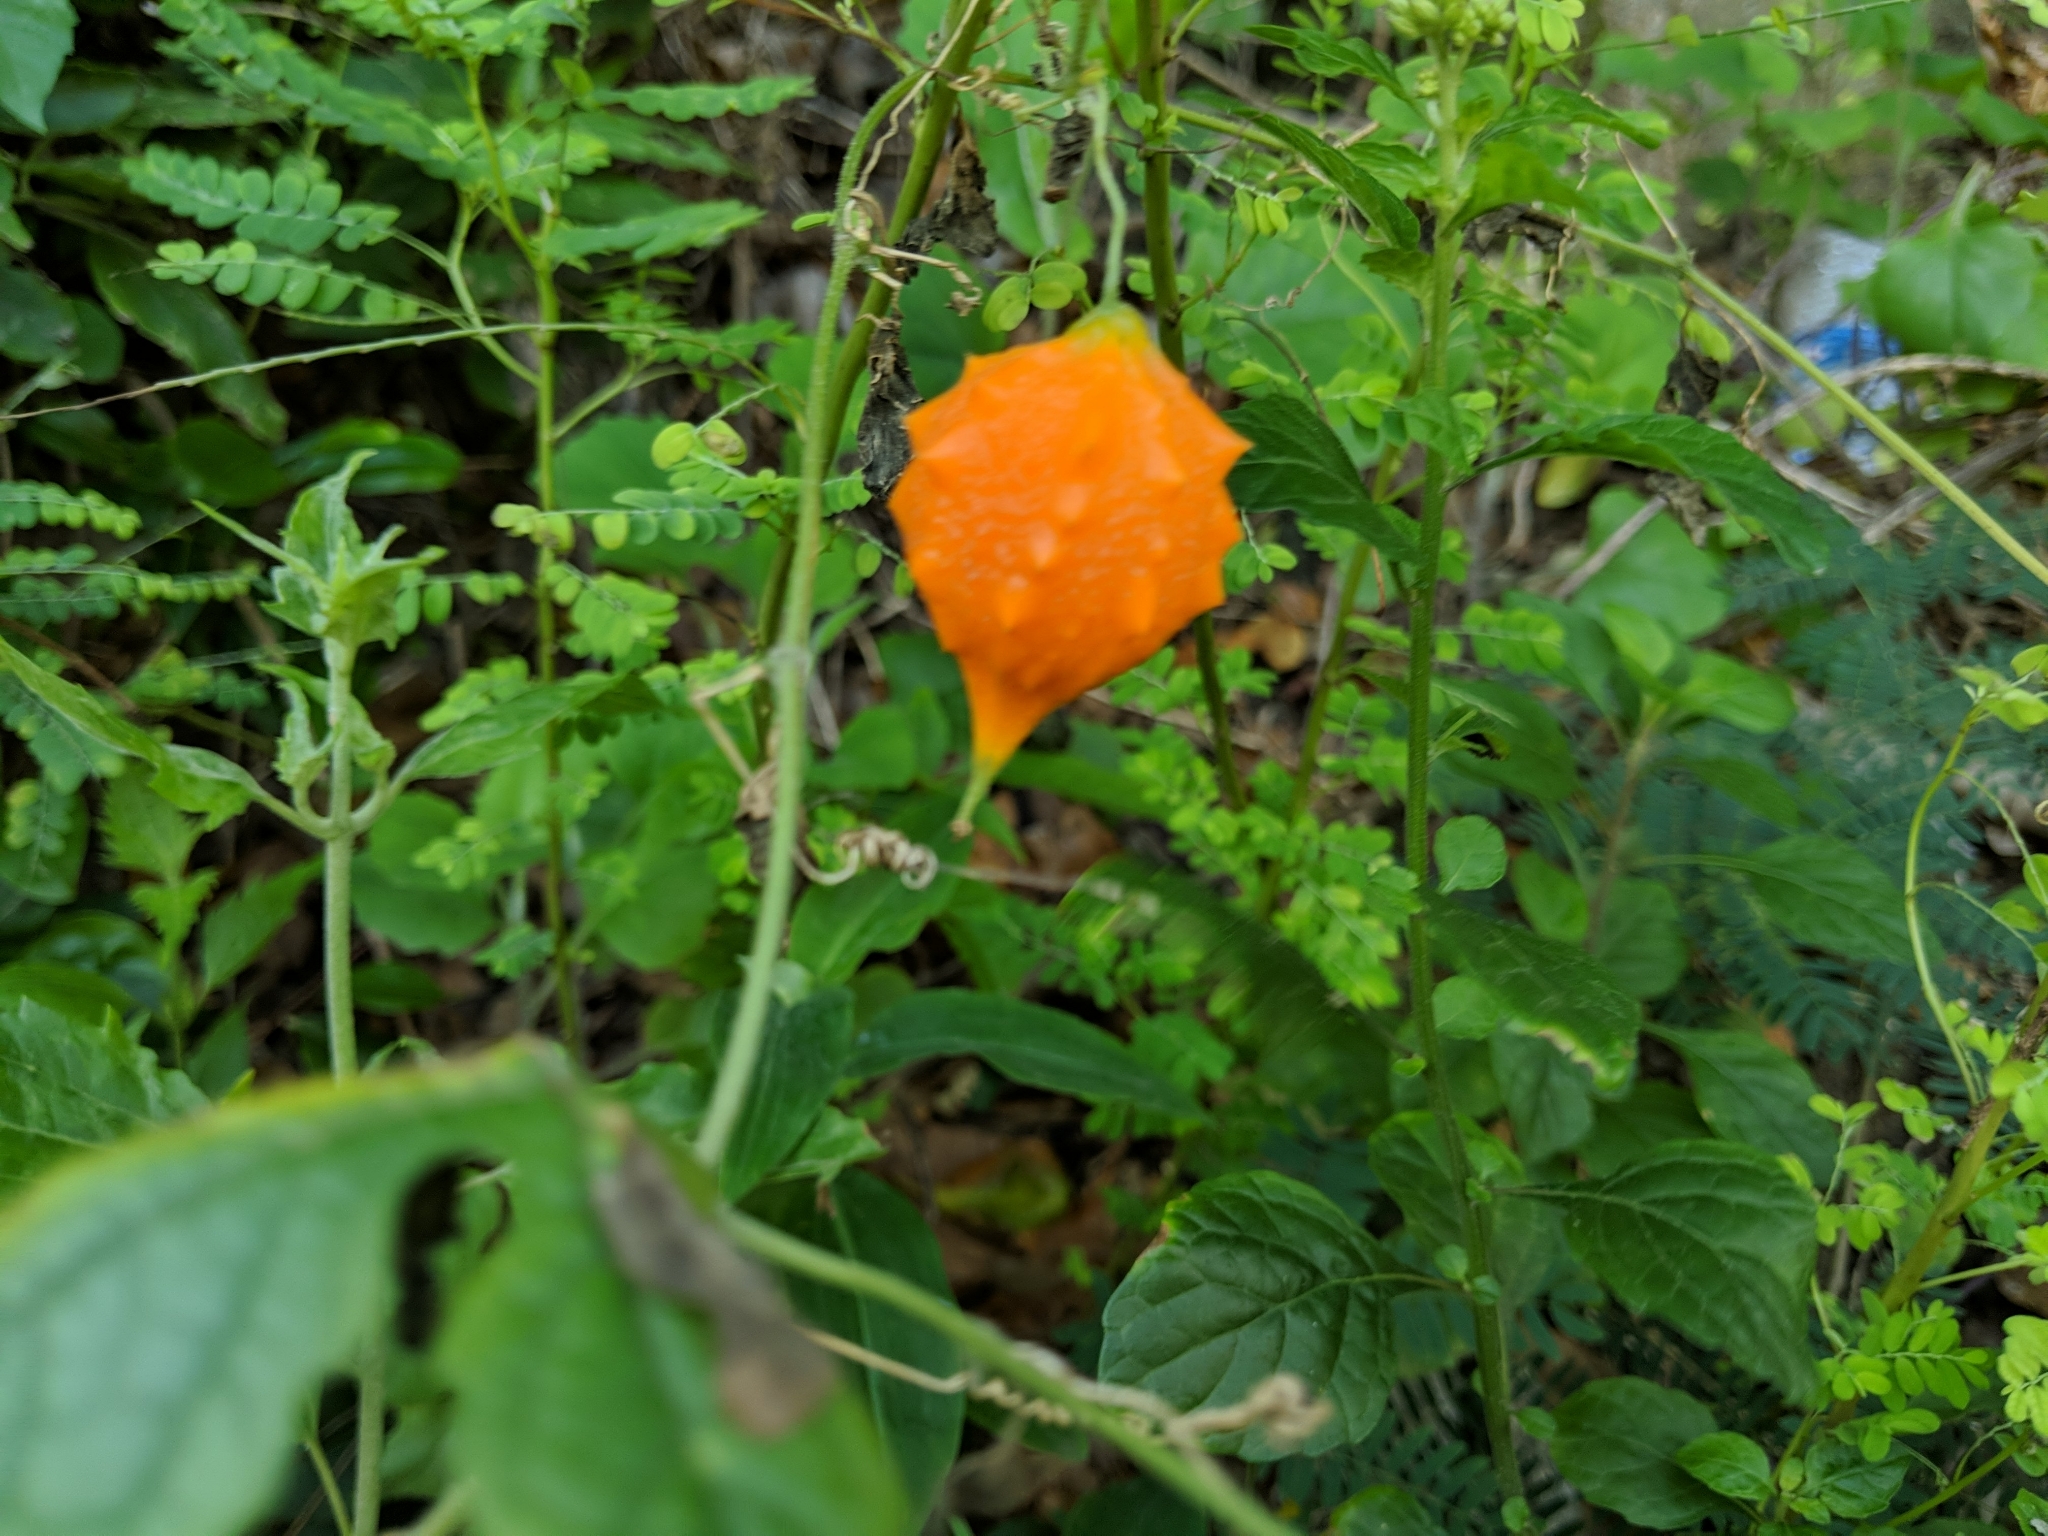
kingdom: Plantae
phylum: Tracheophyta
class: Magnoliopsida
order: Cucurbitales
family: Cucurbitaceae
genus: Momordica
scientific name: Momordica charantia
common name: Balsampear
